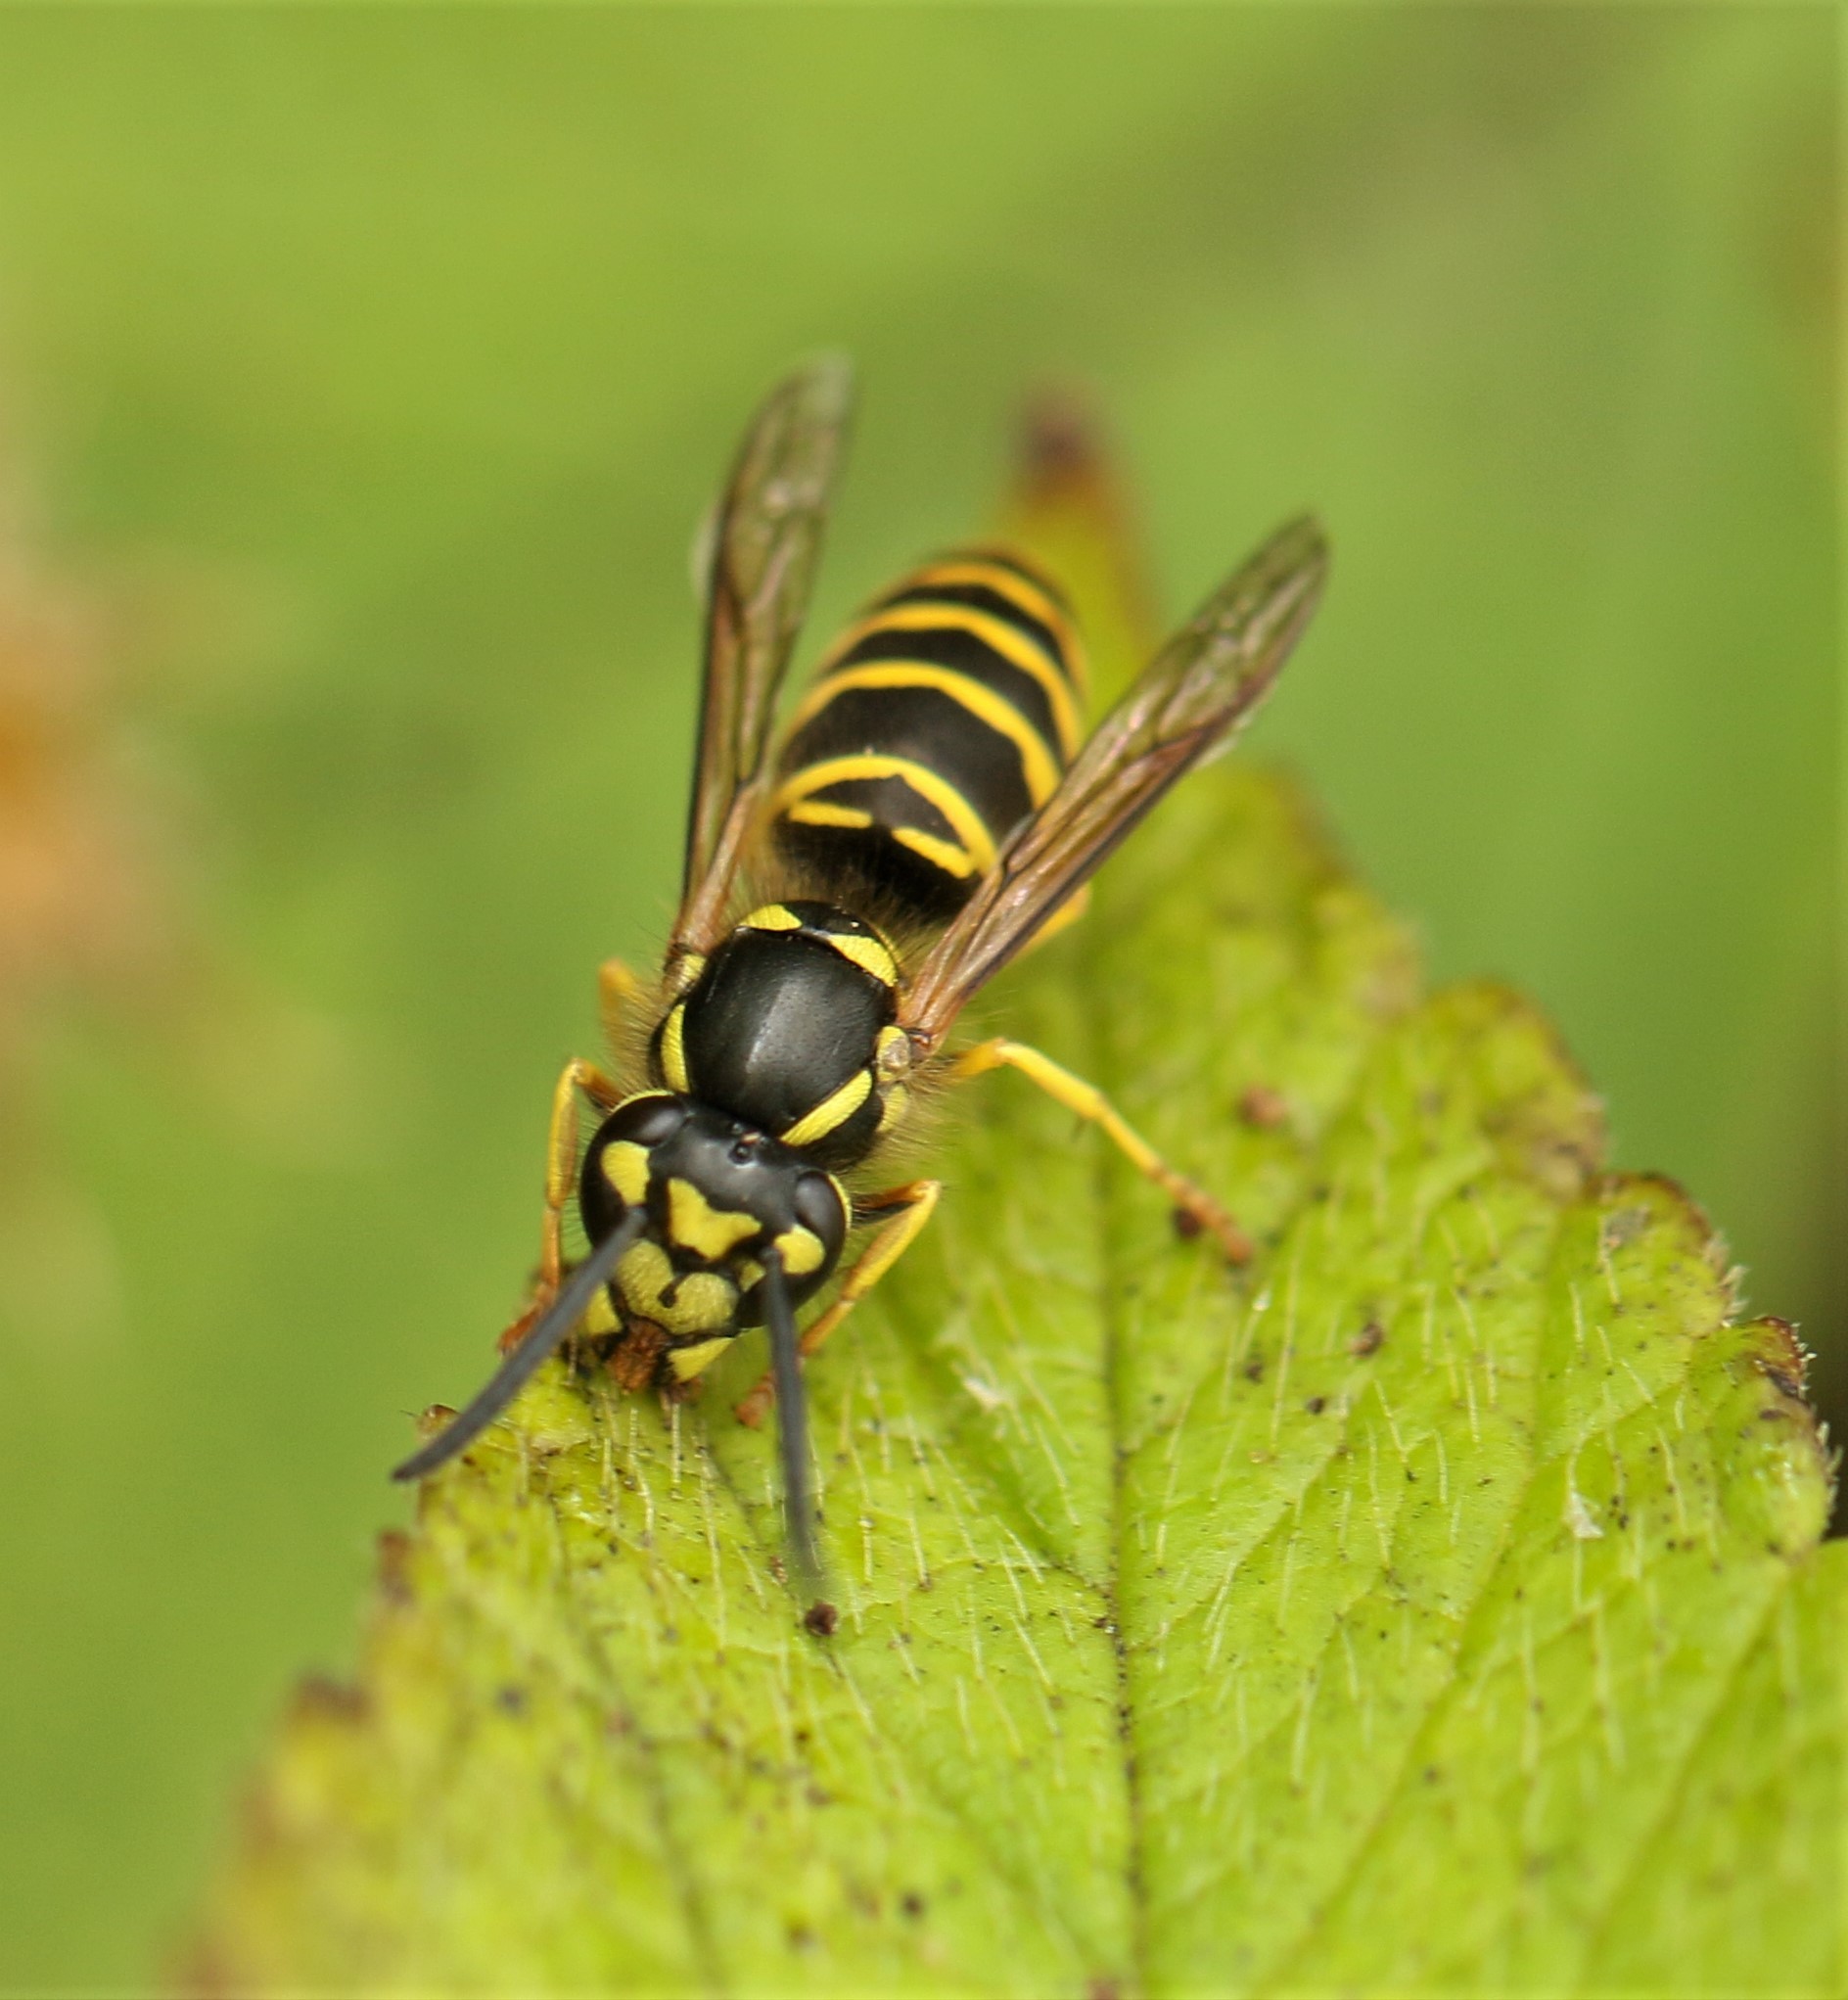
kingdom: Animalia
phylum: Arthropoda
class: Insecta
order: Hymenoptera
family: Vespidae
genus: Vespula
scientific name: Vespula maculifrons
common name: Eastern yellowjacket
